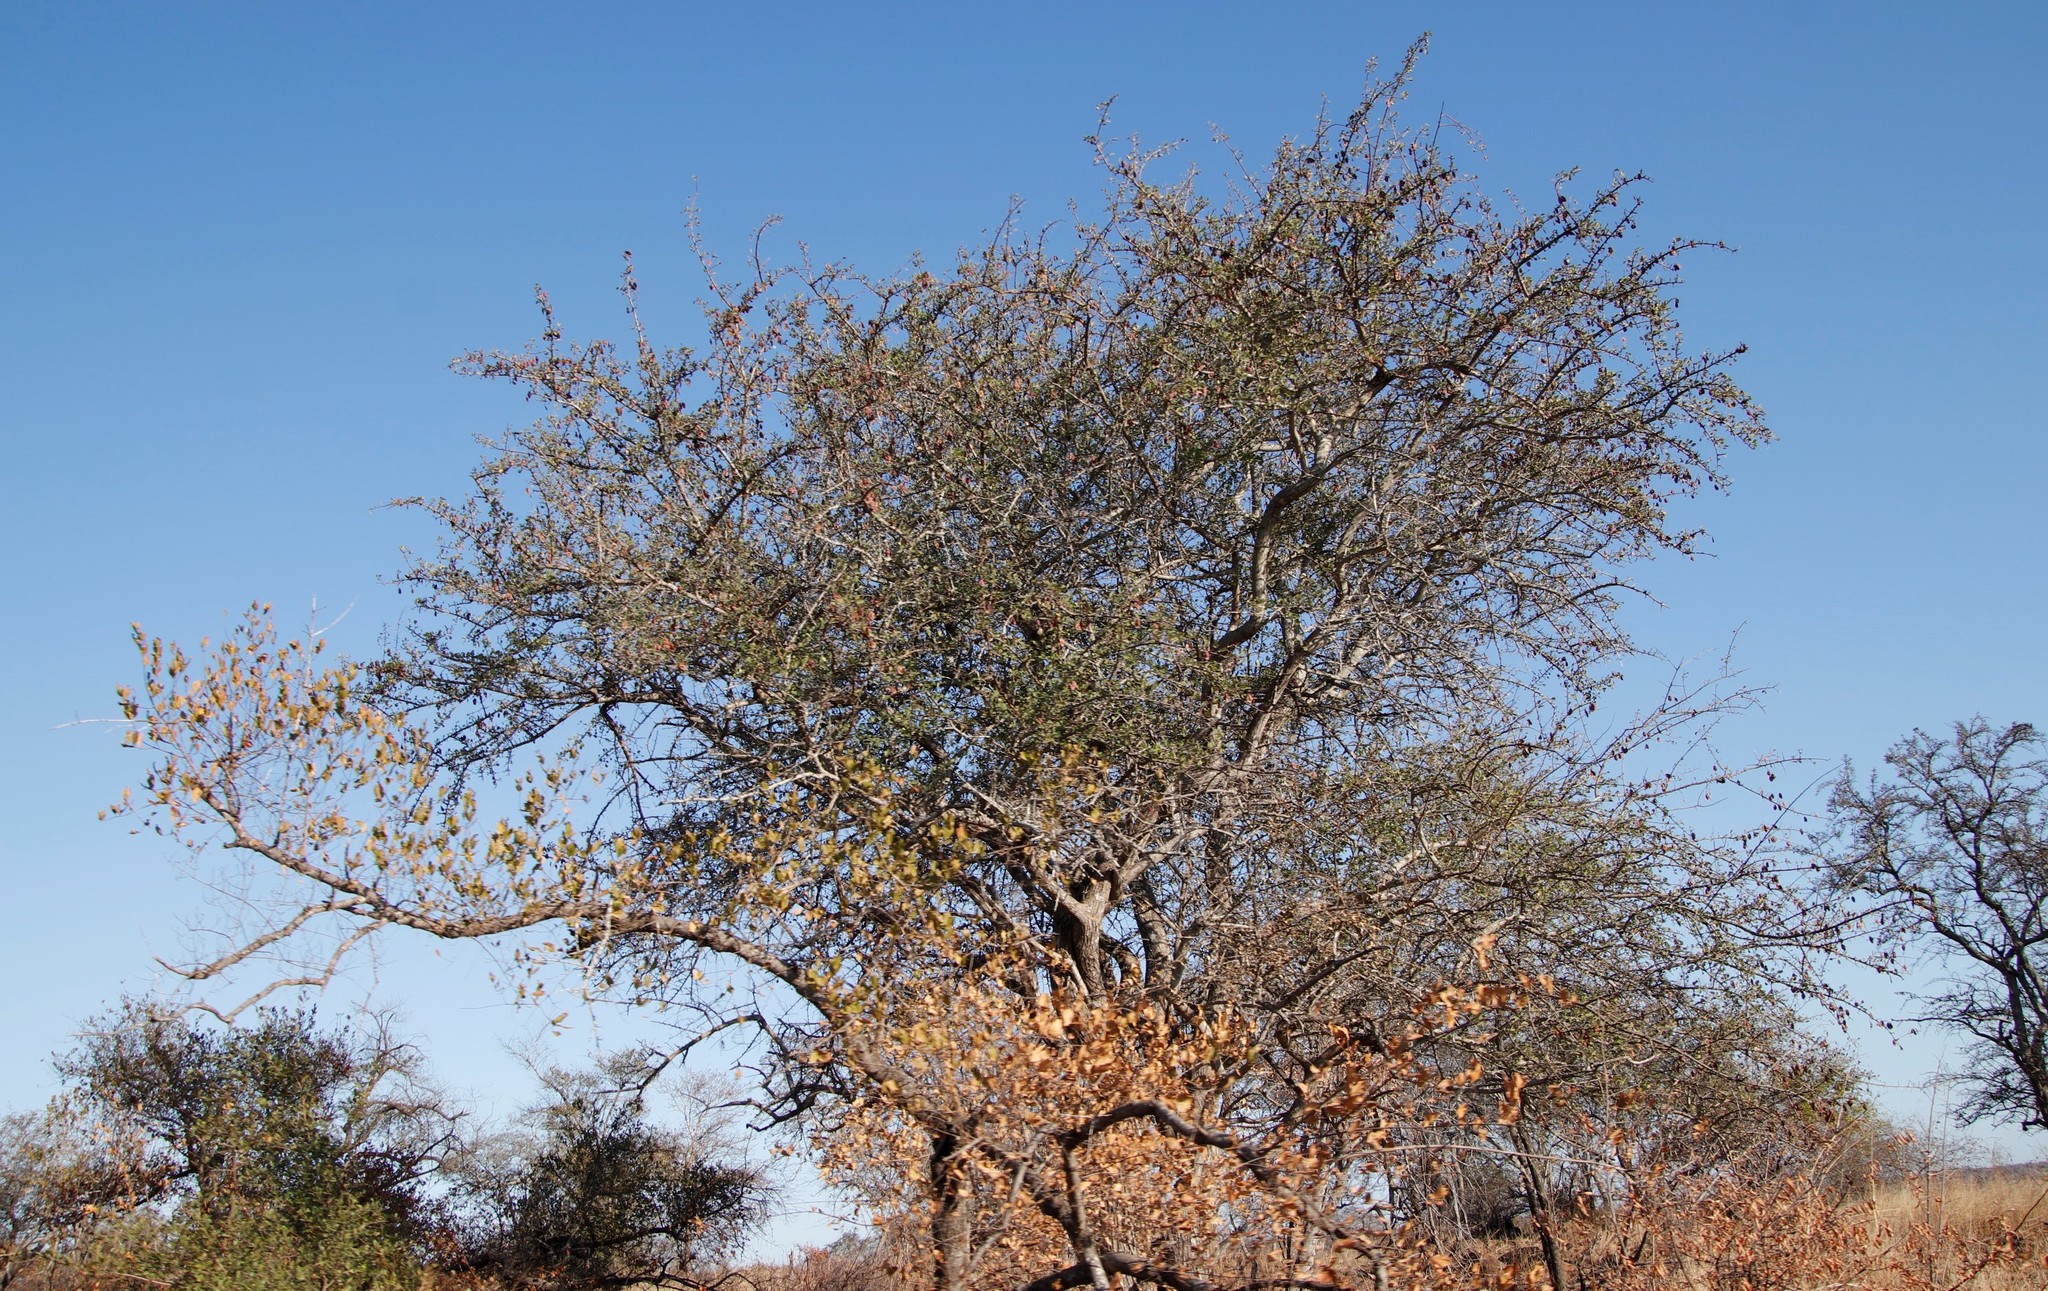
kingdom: Plantae
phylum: Tracheophyta
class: Magnoliopsida
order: Myrtales
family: Combretaceae
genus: Terminalia
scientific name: Terminalia prunioides
